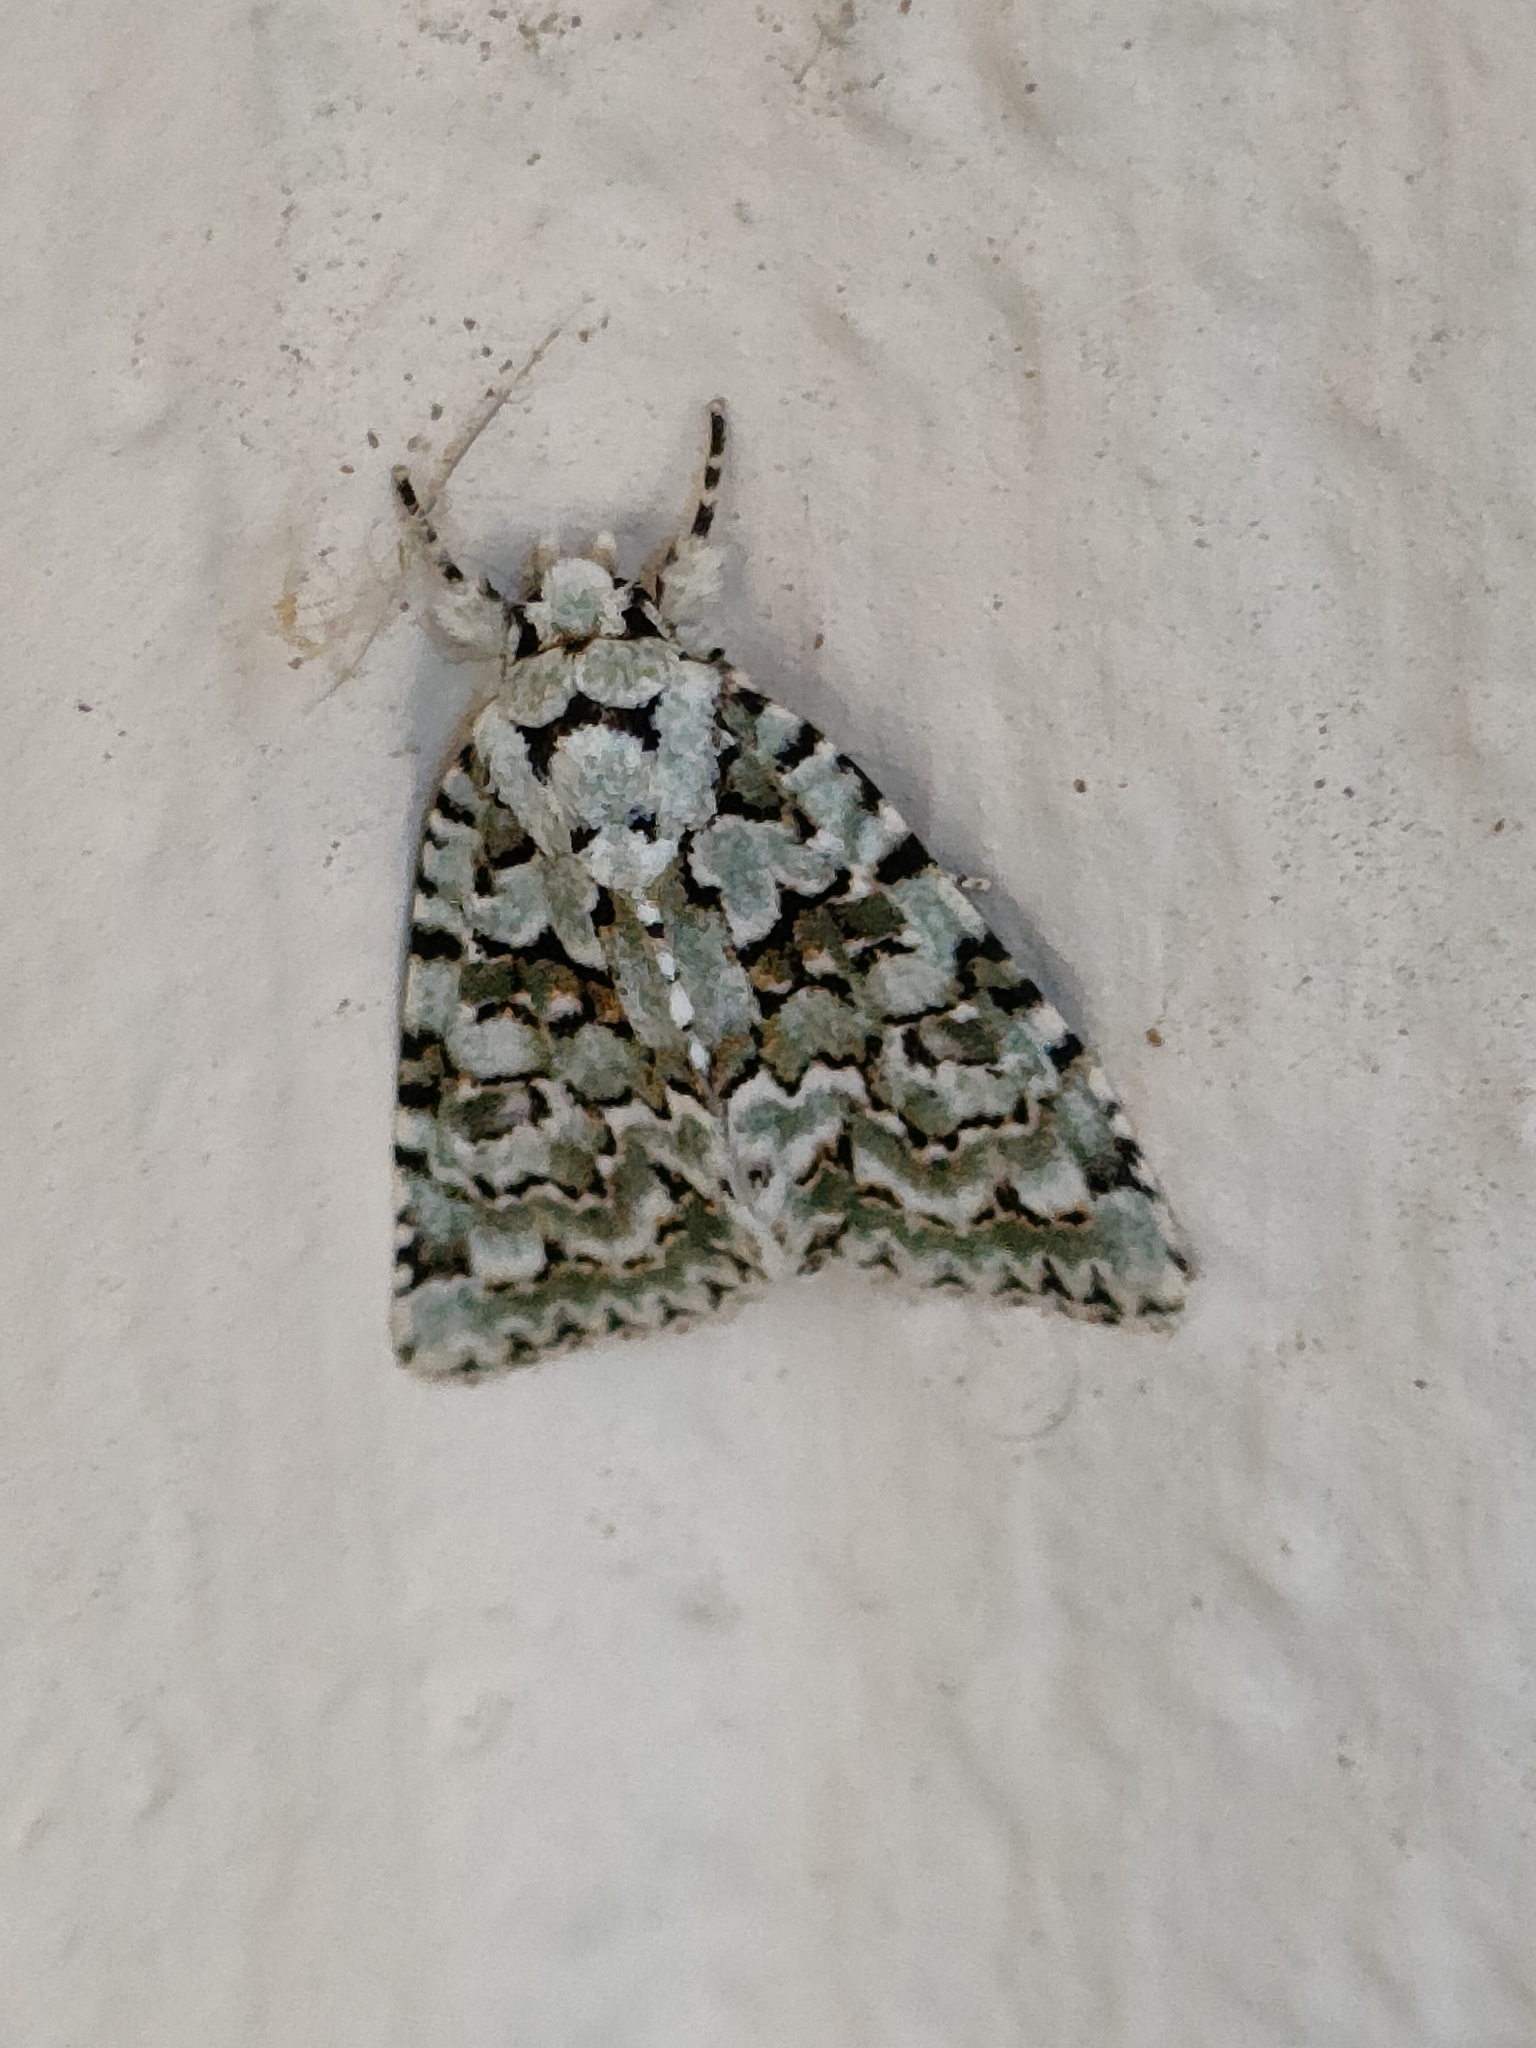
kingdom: Animalia
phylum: Arthropoda
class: Insecta
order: Lepidoptera
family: Noctuidae
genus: Nyctobrya
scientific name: Nyctobrya muralis
